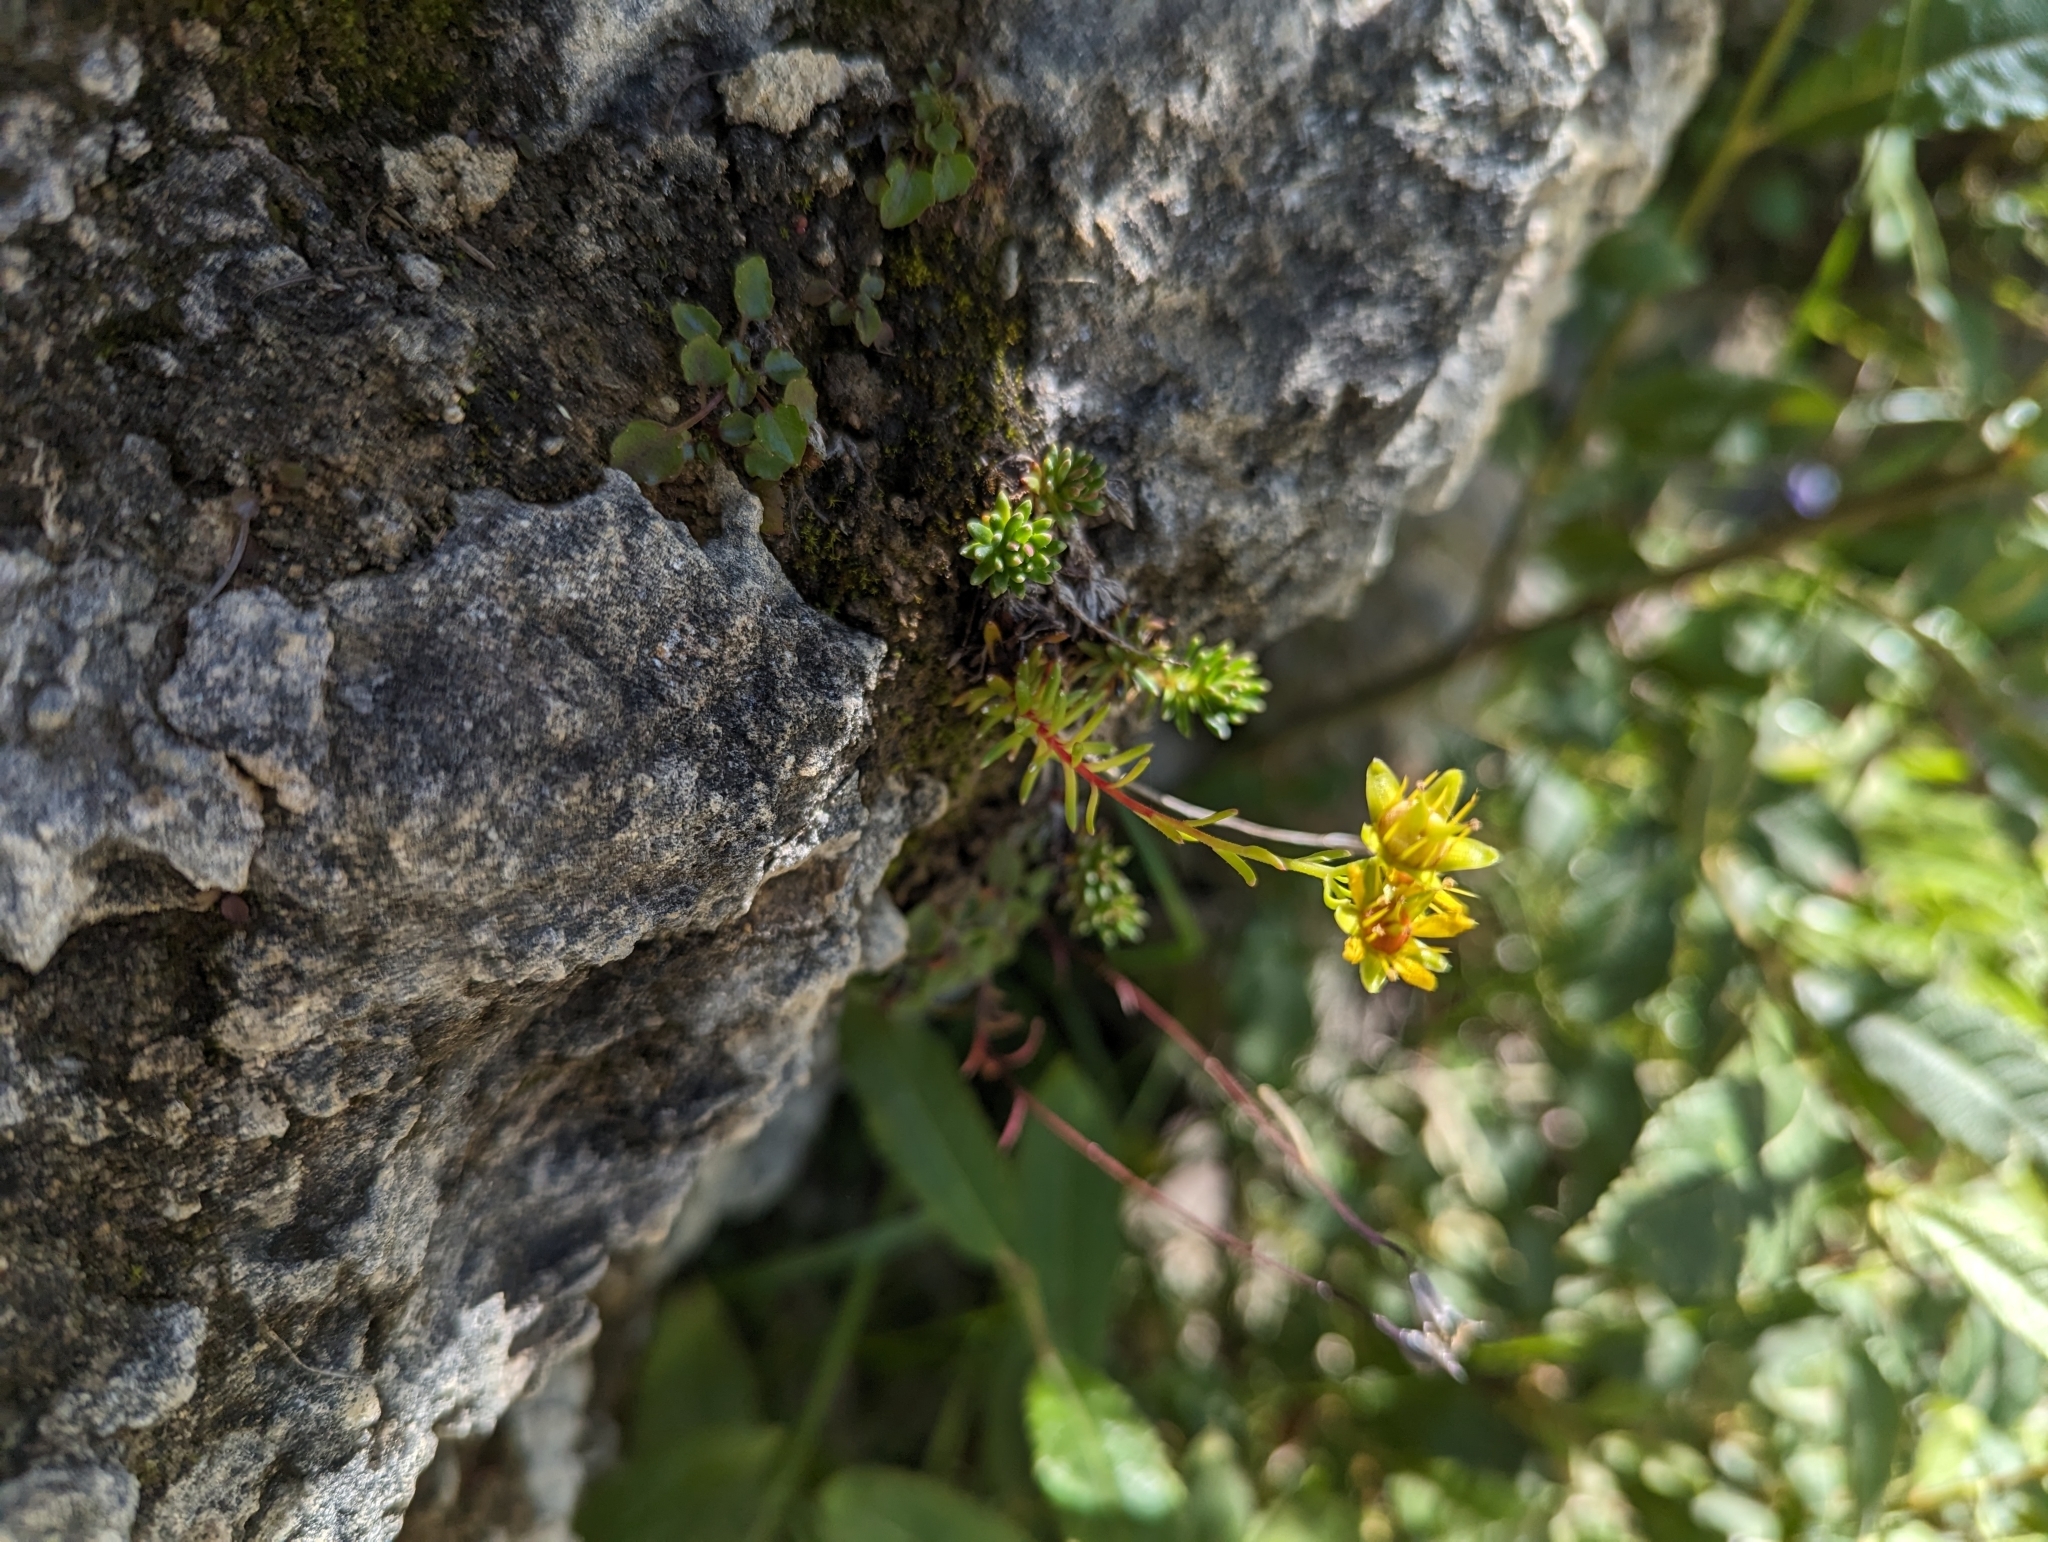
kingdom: Plantae
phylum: Tracheophyta
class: Magnoliopsida
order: Saxifragales
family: Saxifragaceae
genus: Saxifraga
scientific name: Saxifraga aizoides
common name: Yellow mountain saxifrage
